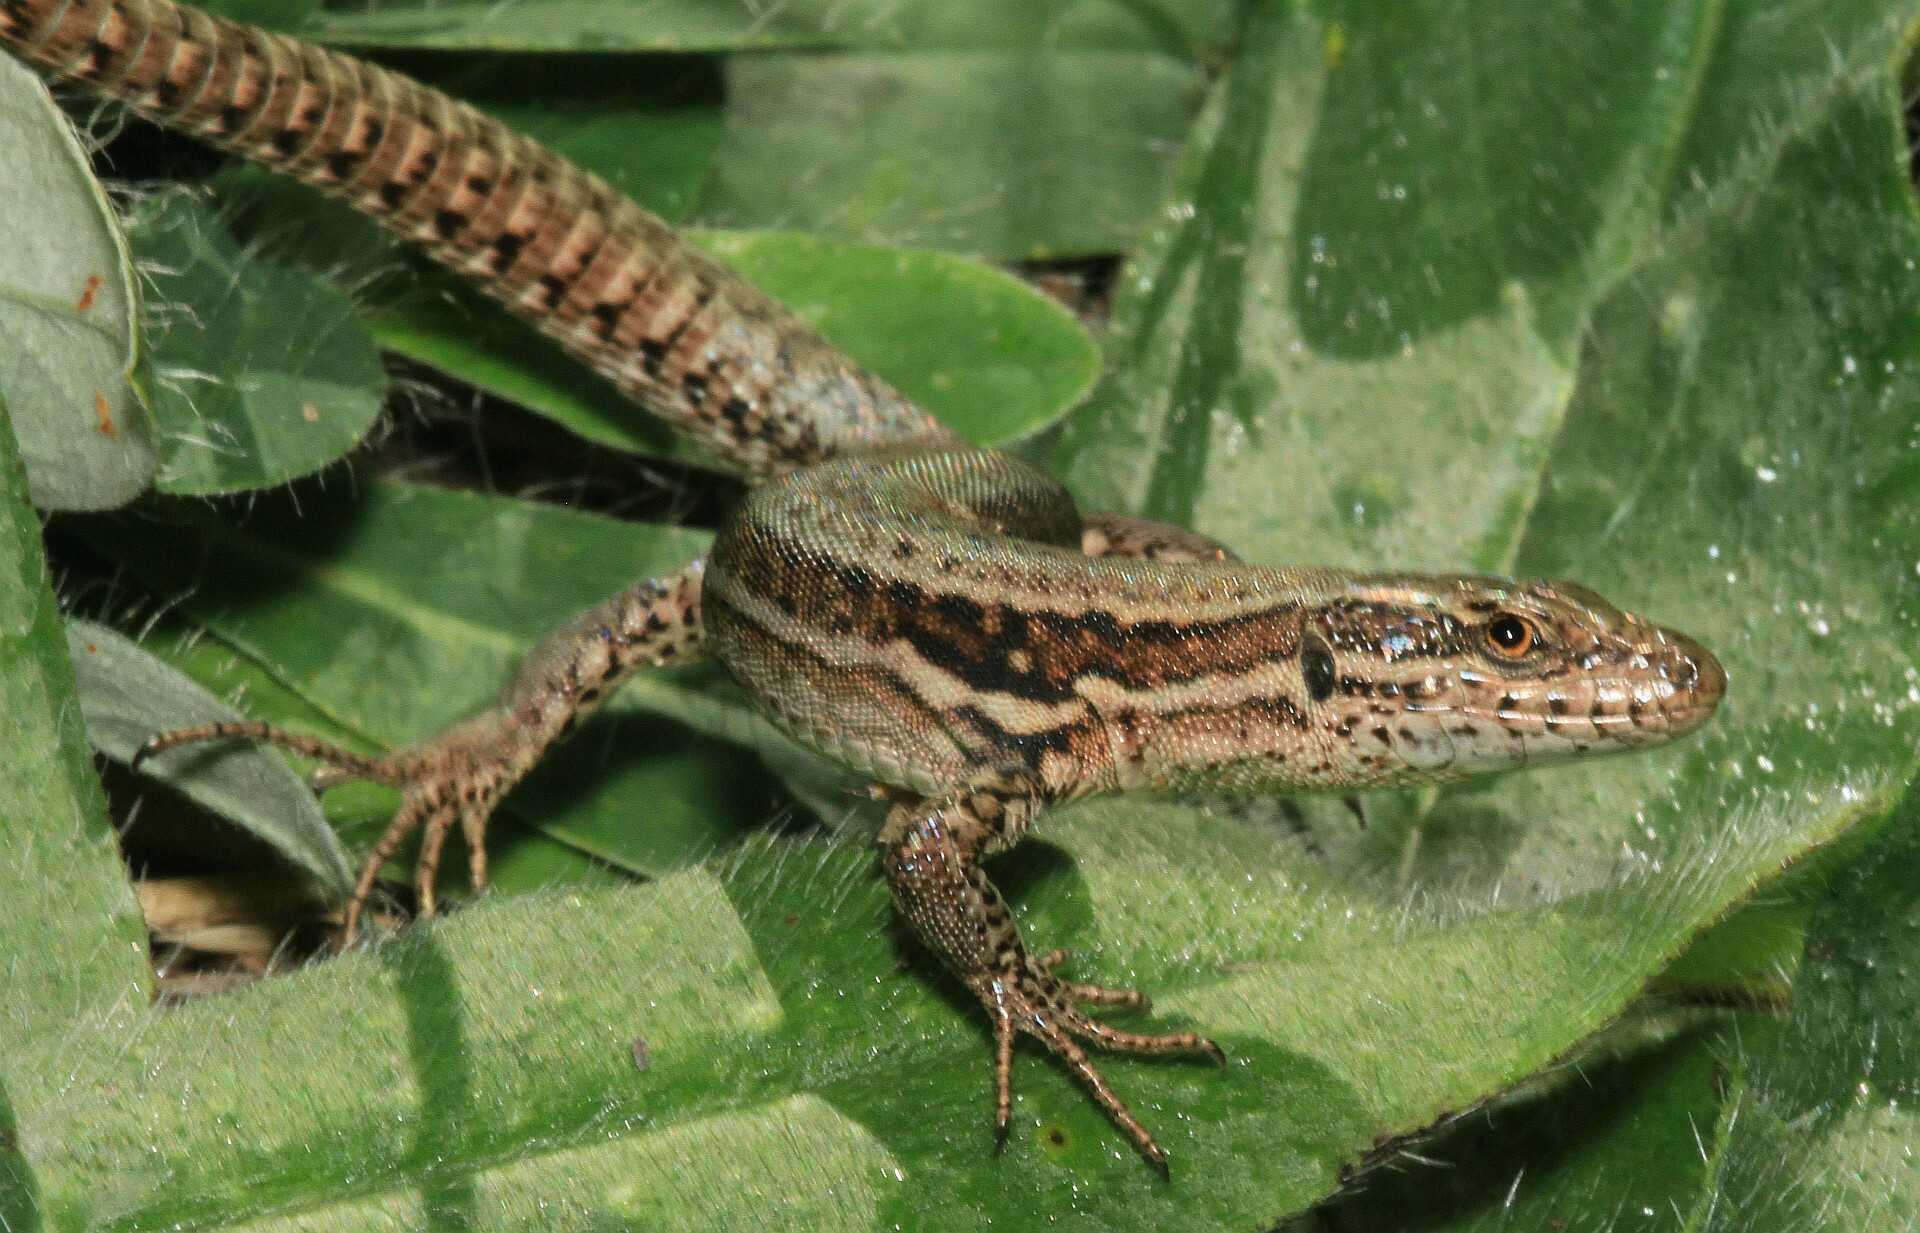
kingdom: Animalia
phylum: Chordata
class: Squamata
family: Lacertidae
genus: Podarcis
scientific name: Podarcis muralis
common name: Common wall lizard
